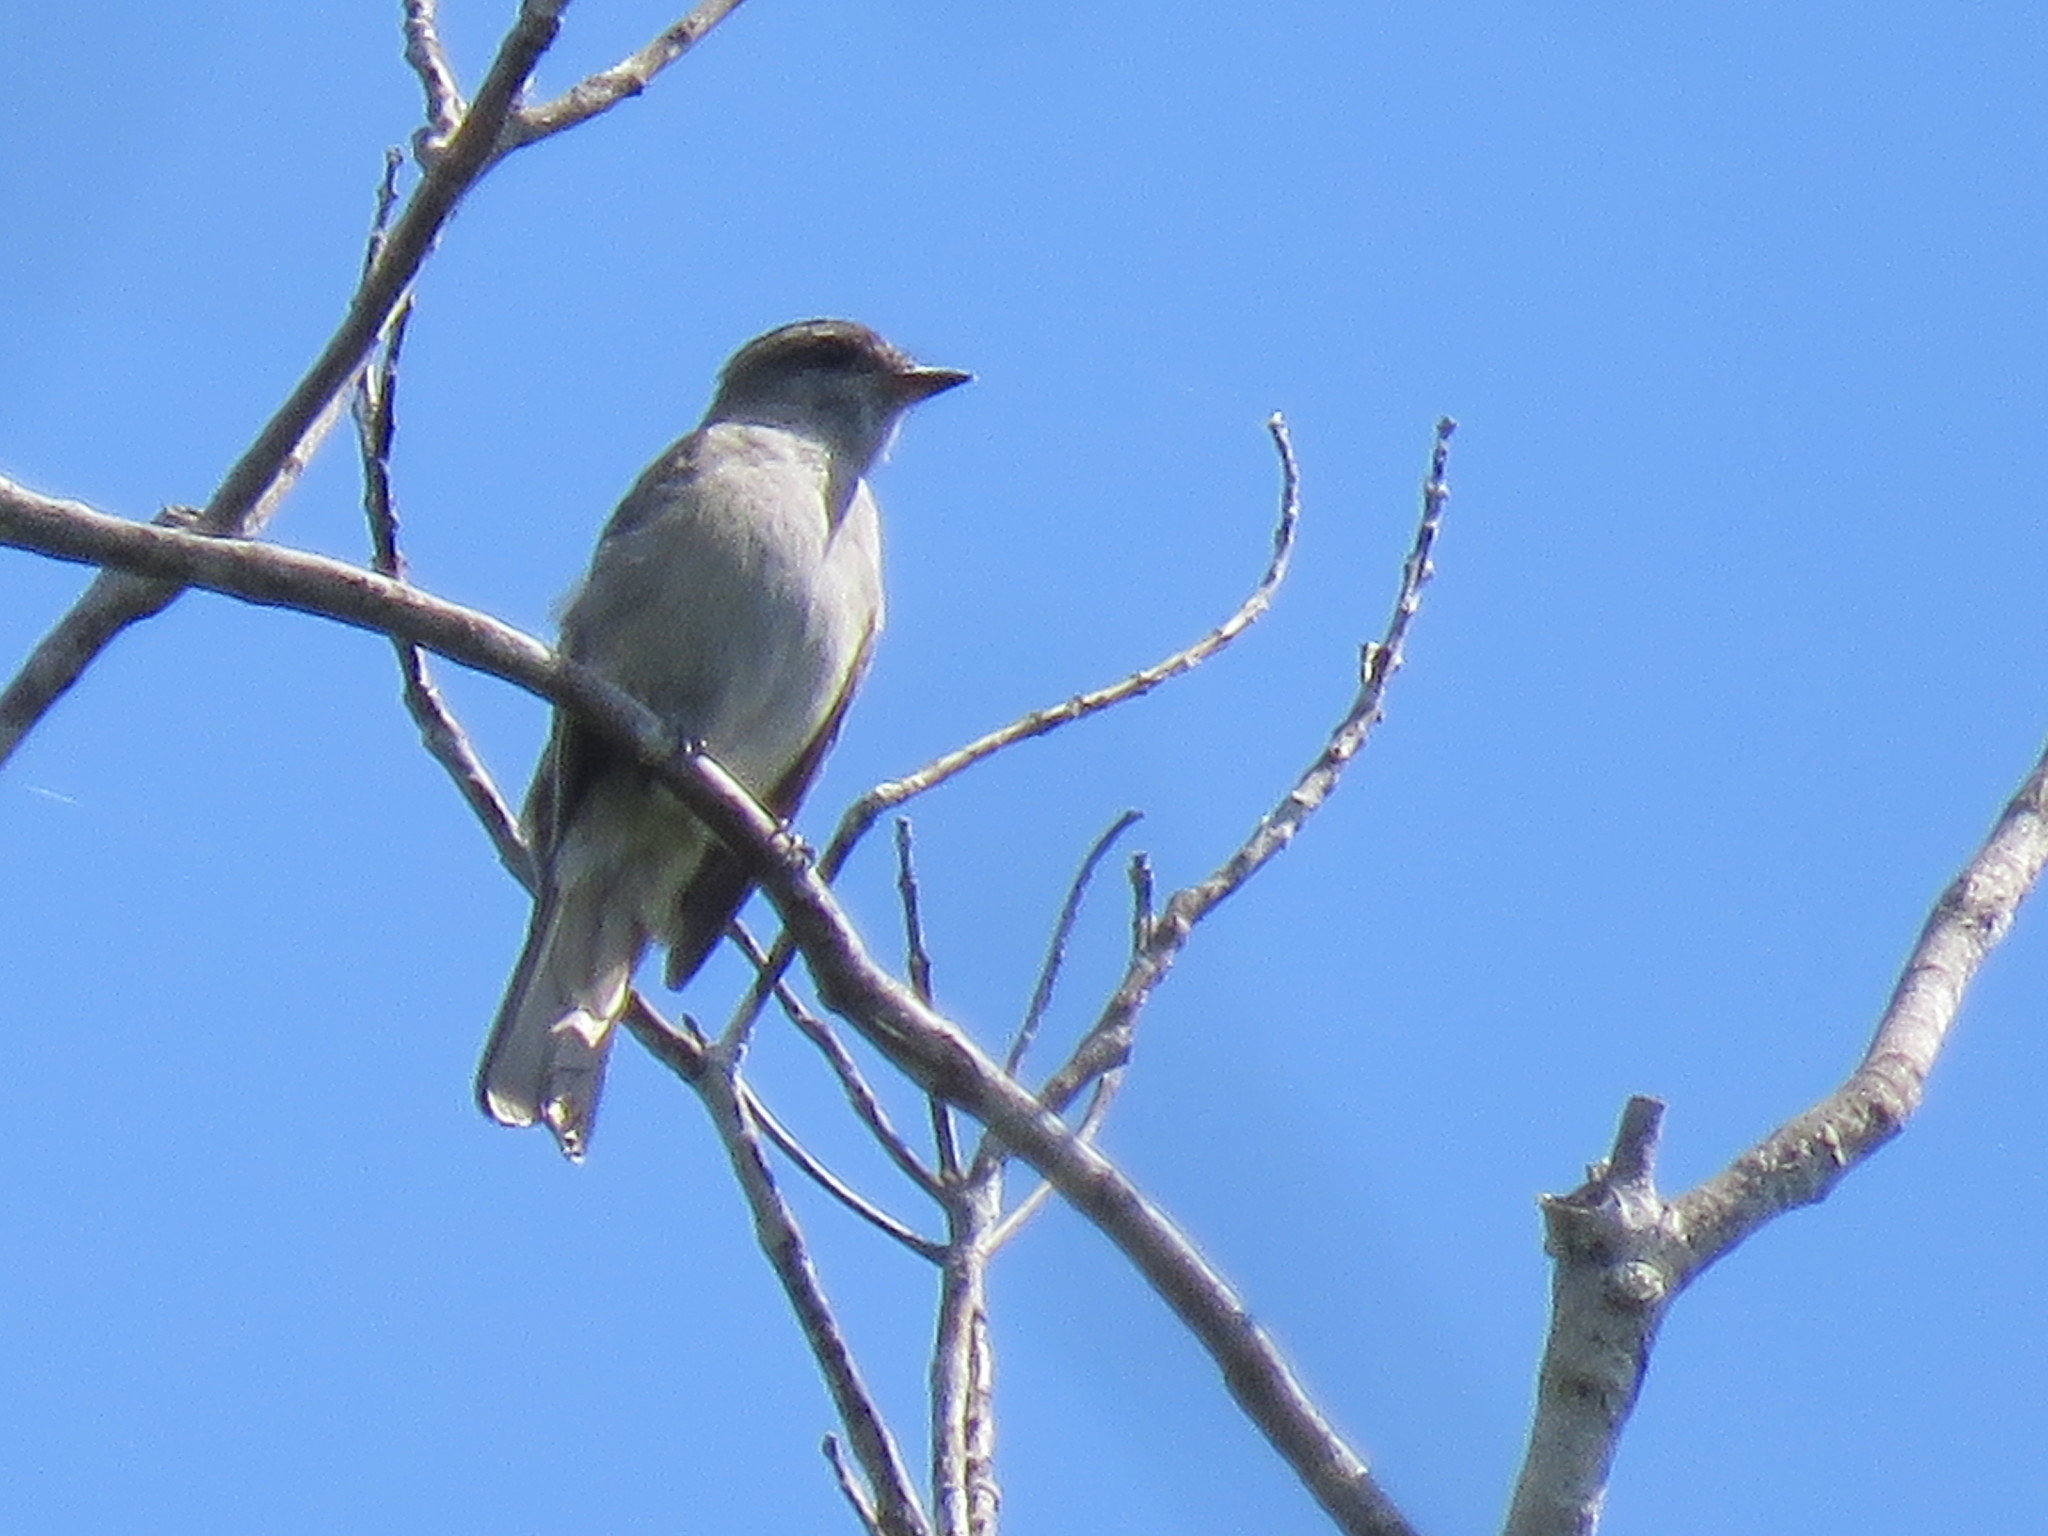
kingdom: Animalia
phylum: Chordata
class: Aves
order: Passeriformes
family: Tyrannidae
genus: Empidonomus
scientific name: Empidonomus aurantioatrocristatus
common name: Crowned slaty flycatcher
